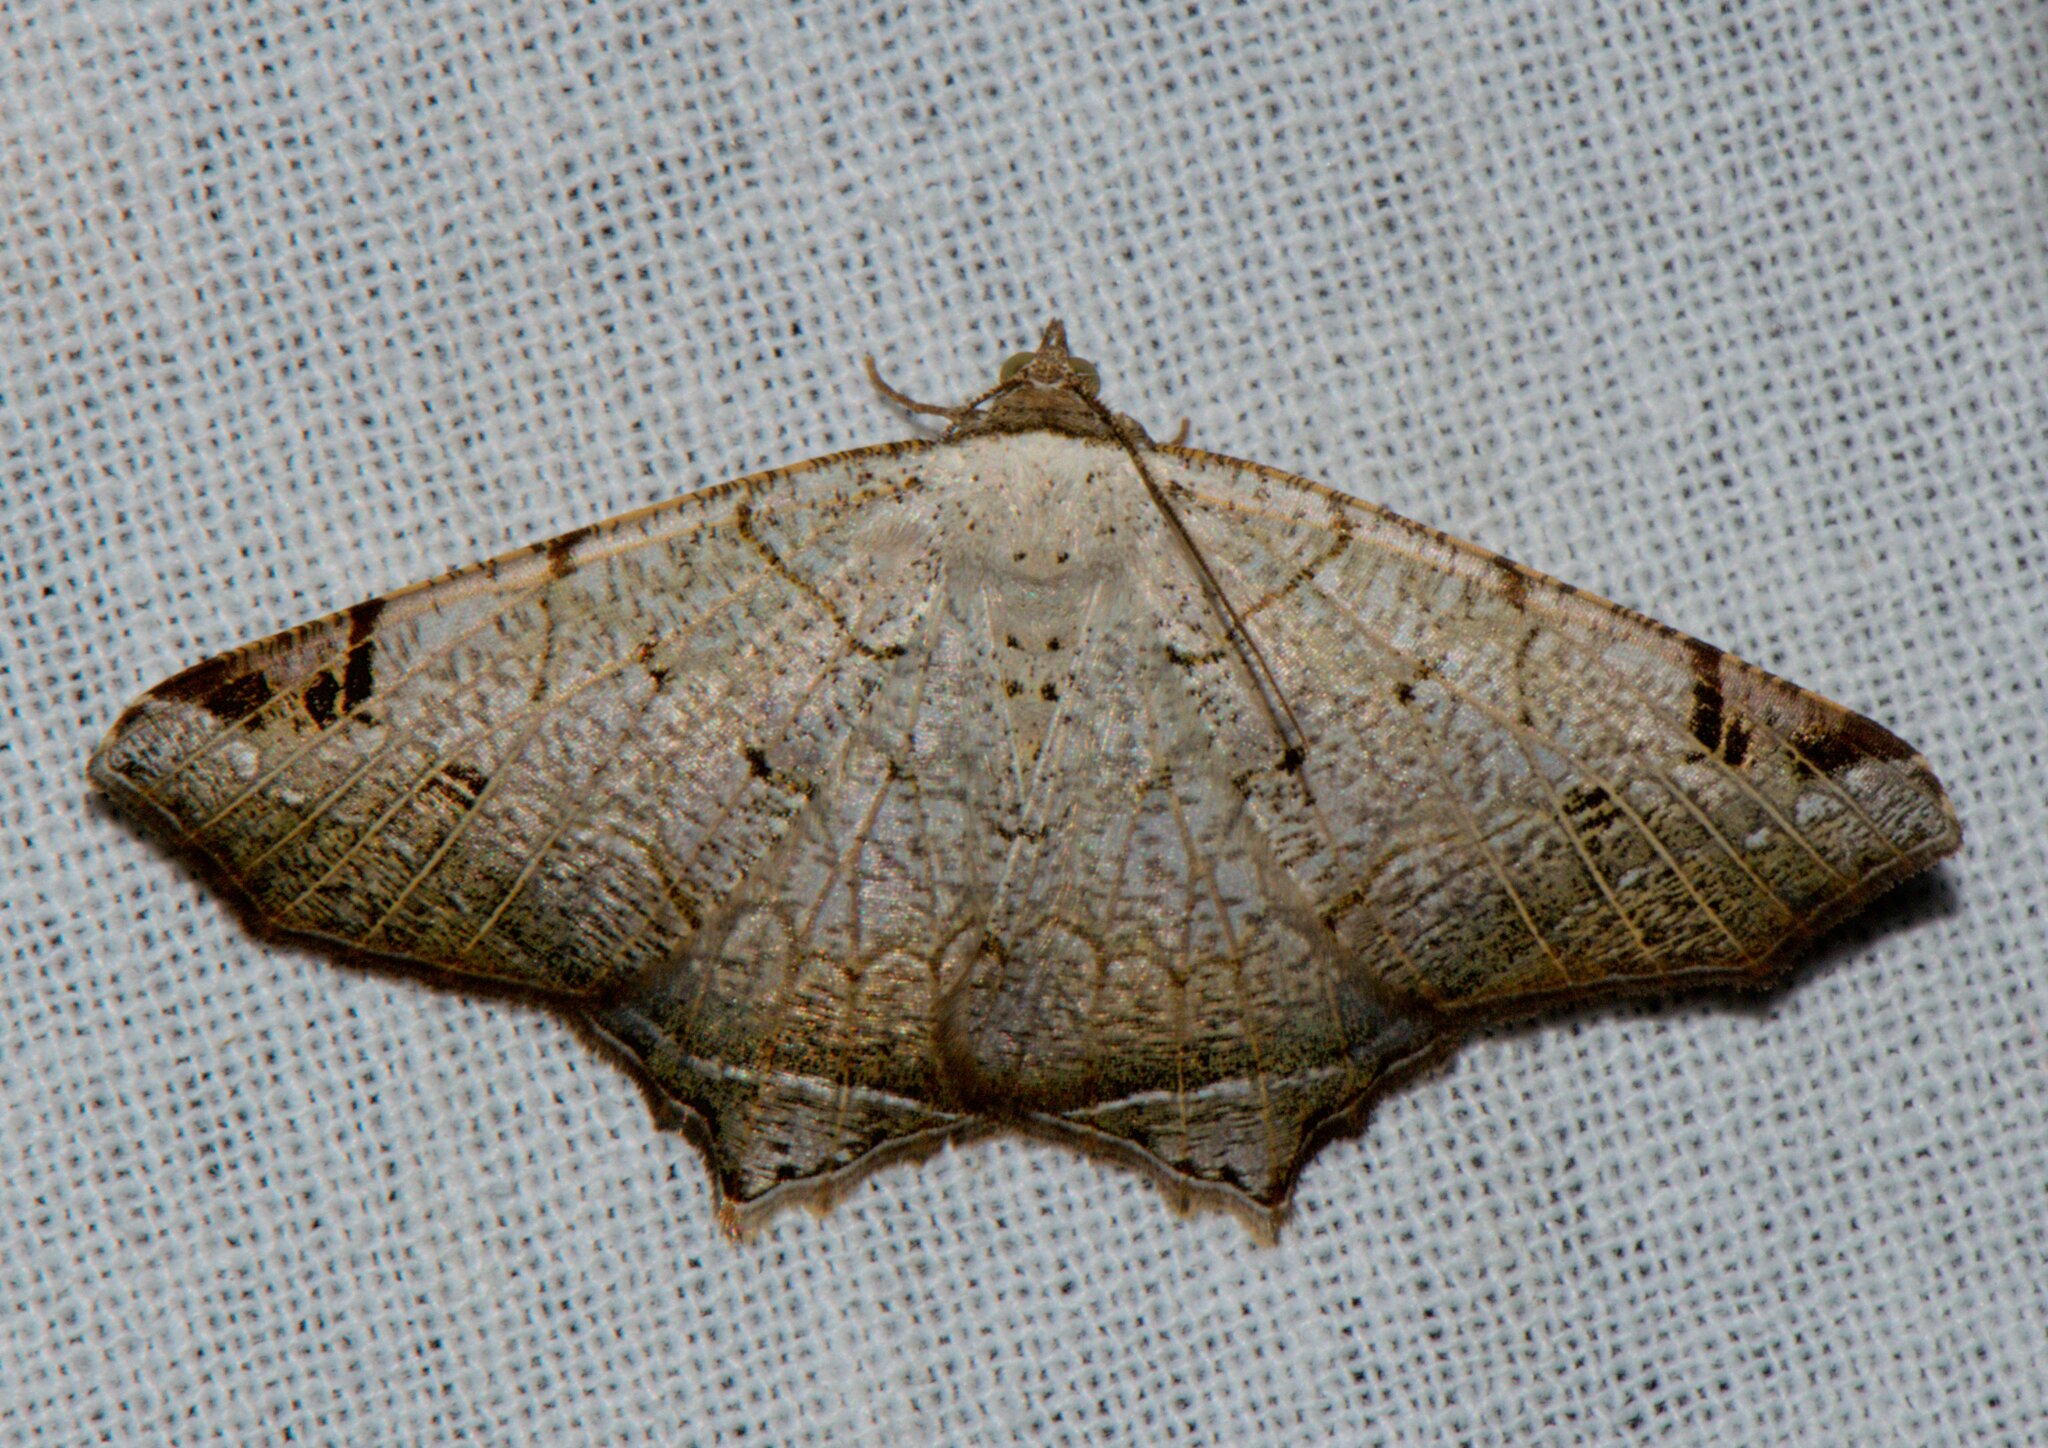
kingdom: Animalia
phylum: Arthropoda
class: Insecta
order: Lepidoptera
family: Geometridae
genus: Oxymacaria
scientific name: Oxymacaria penumbrata
